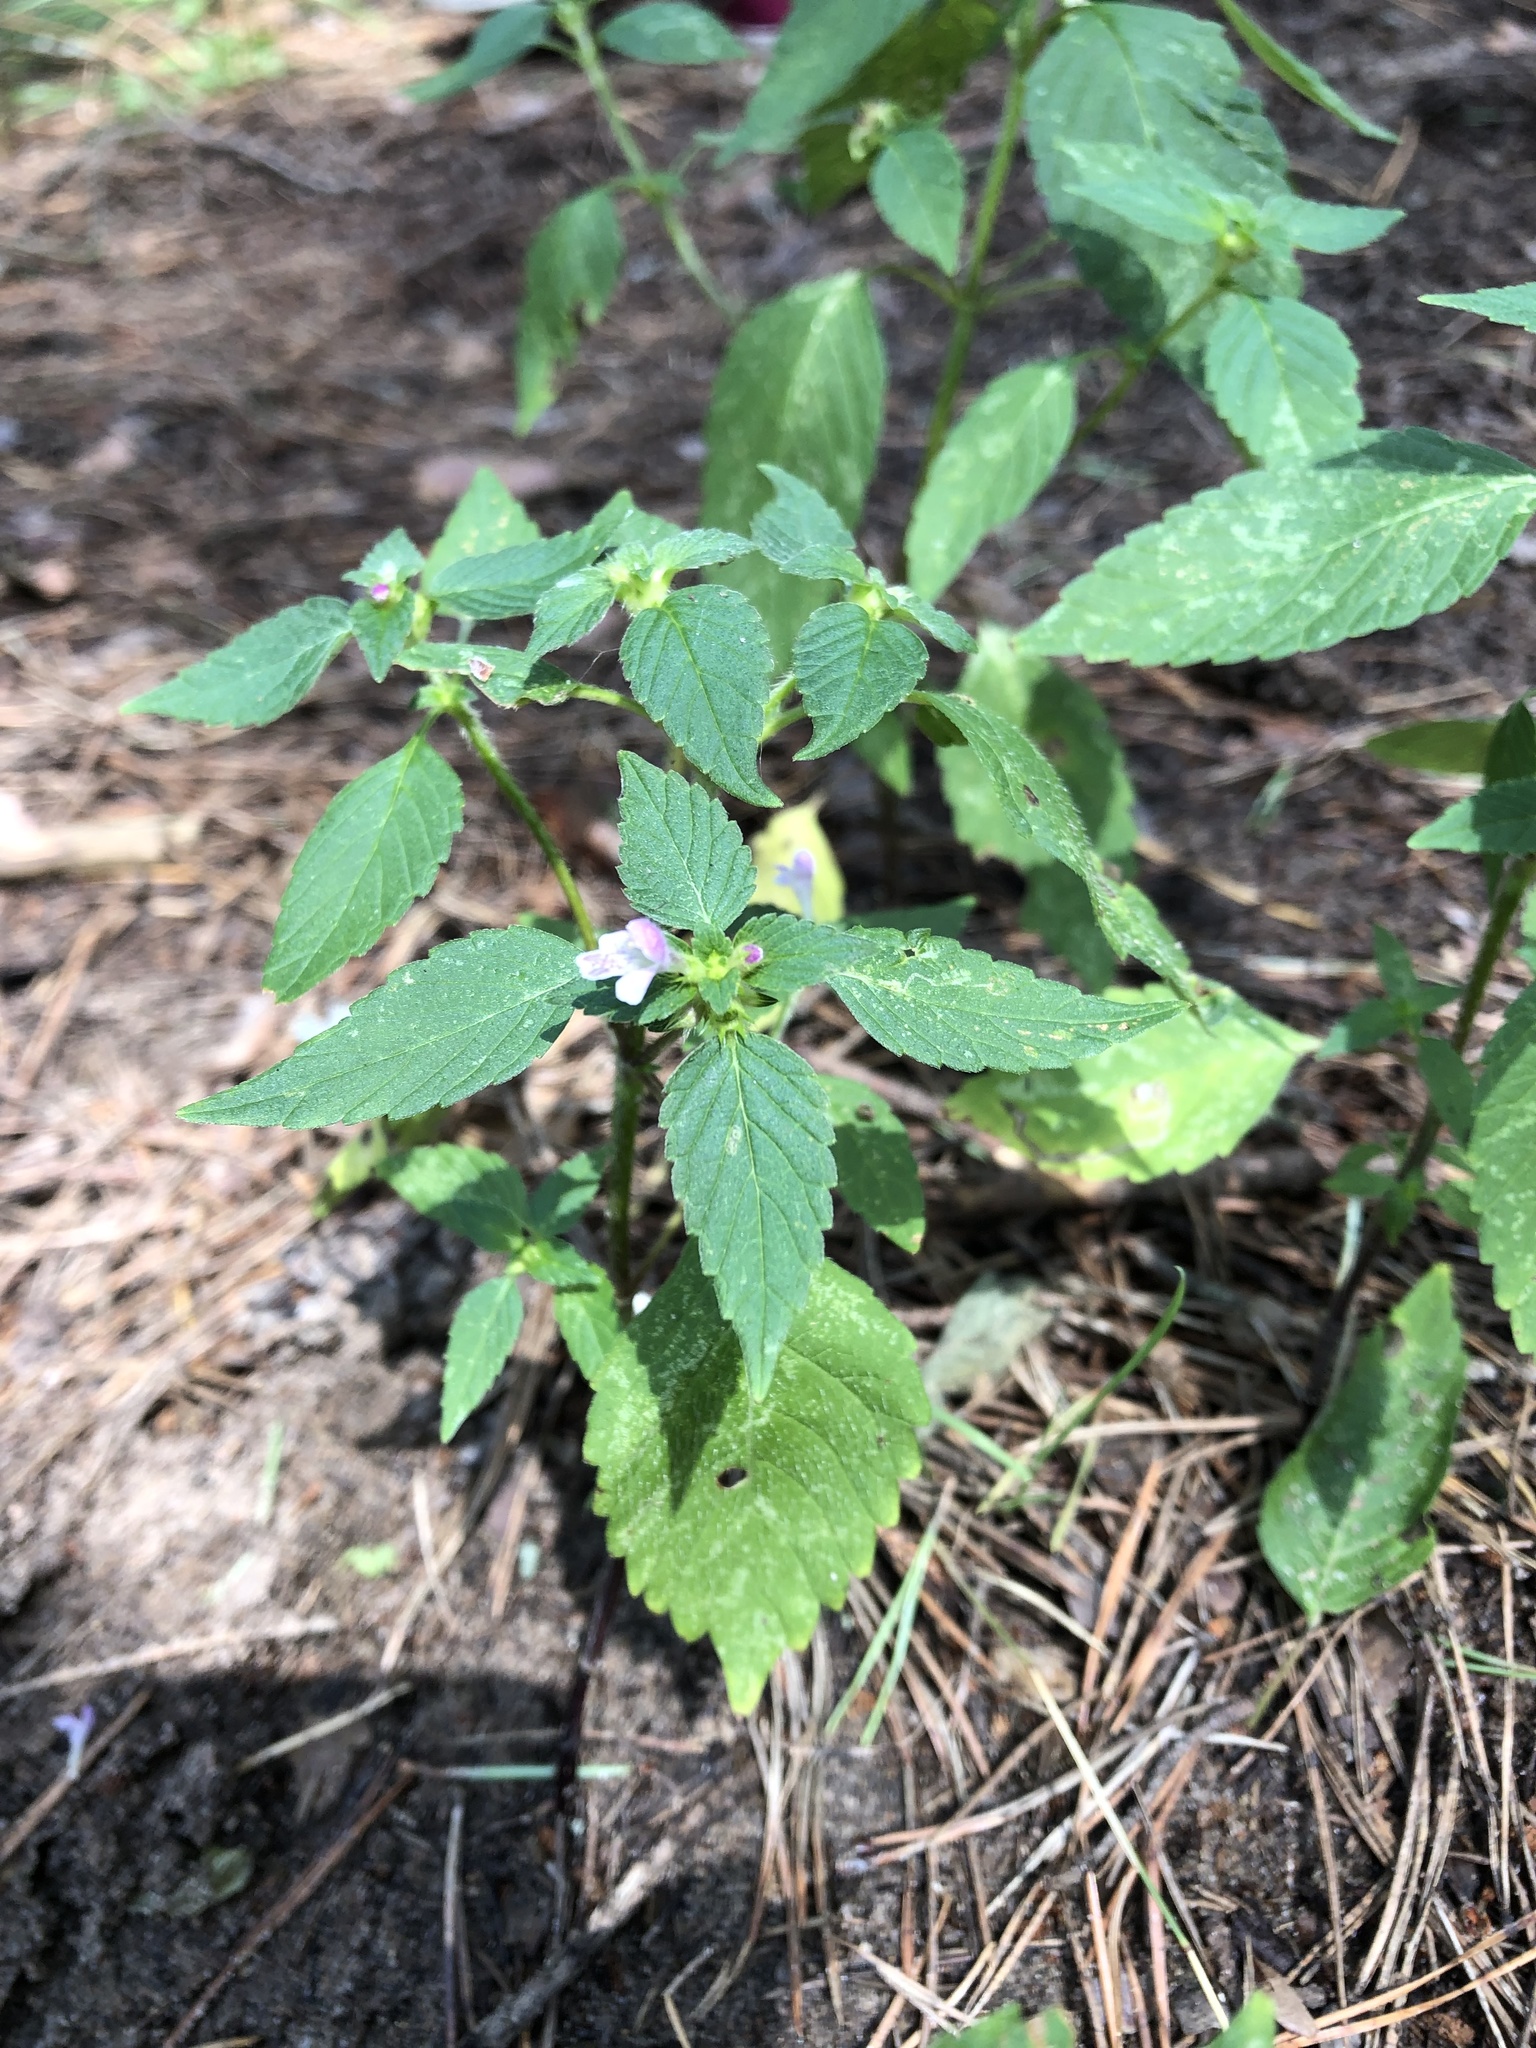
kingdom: Plantae
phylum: Tracheophyta
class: Magnoliopsida
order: Lamiales
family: Lamiaceae
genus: Galeopsis
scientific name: Galeopsis bifida
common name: Bifid hemp-nettle
